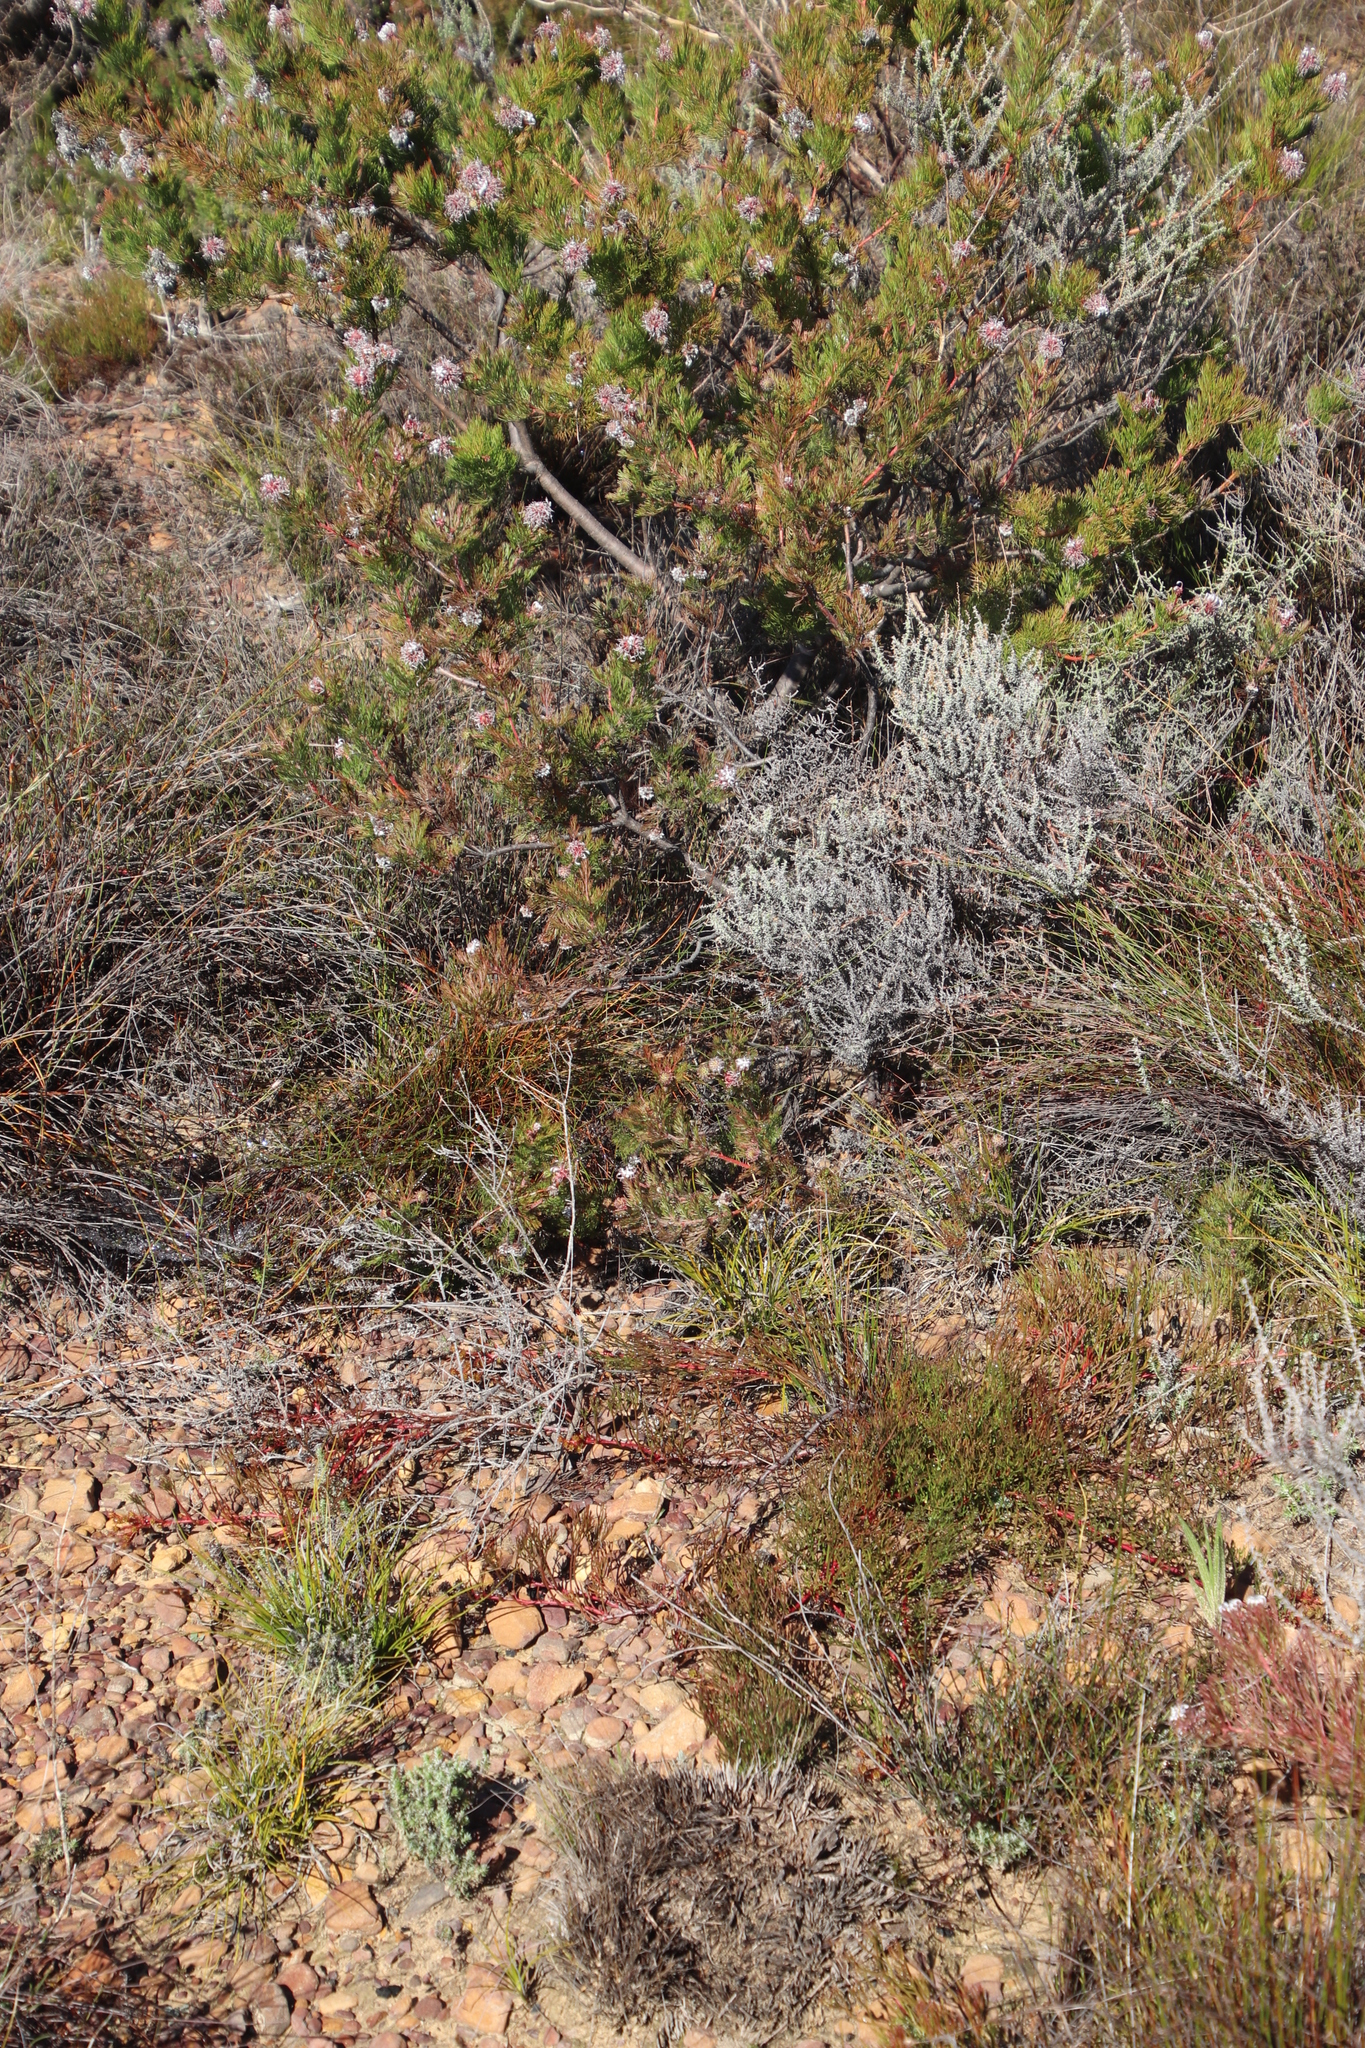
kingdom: Plantae
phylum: Tracheophyta
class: Magnoliopsida
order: Proteales
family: Proteaceae
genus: Serruria
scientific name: Serruria effusa
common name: Candelabra spiderhead
